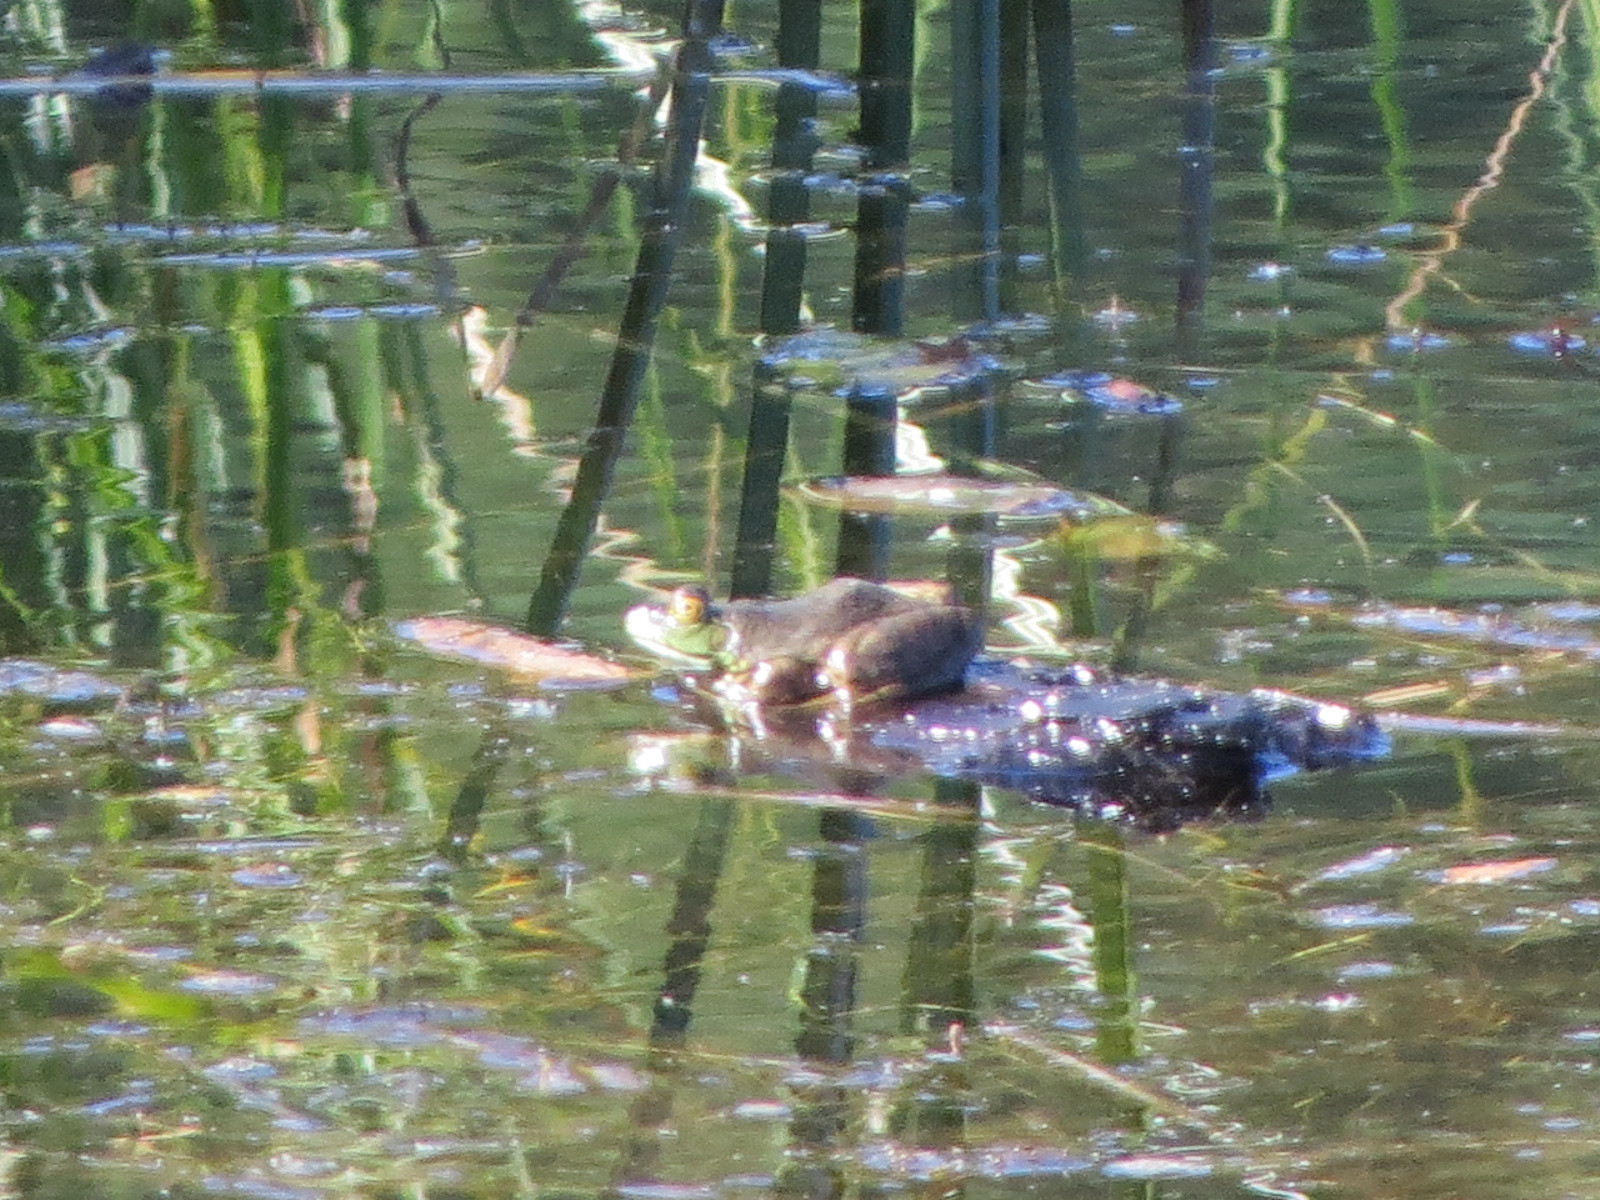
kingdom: Animalia
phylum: Chordata
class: Amphibia
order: Anura
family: Ranidae
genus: Lithobates
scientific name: Lithobates catesbeianus
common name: American bullfrog
